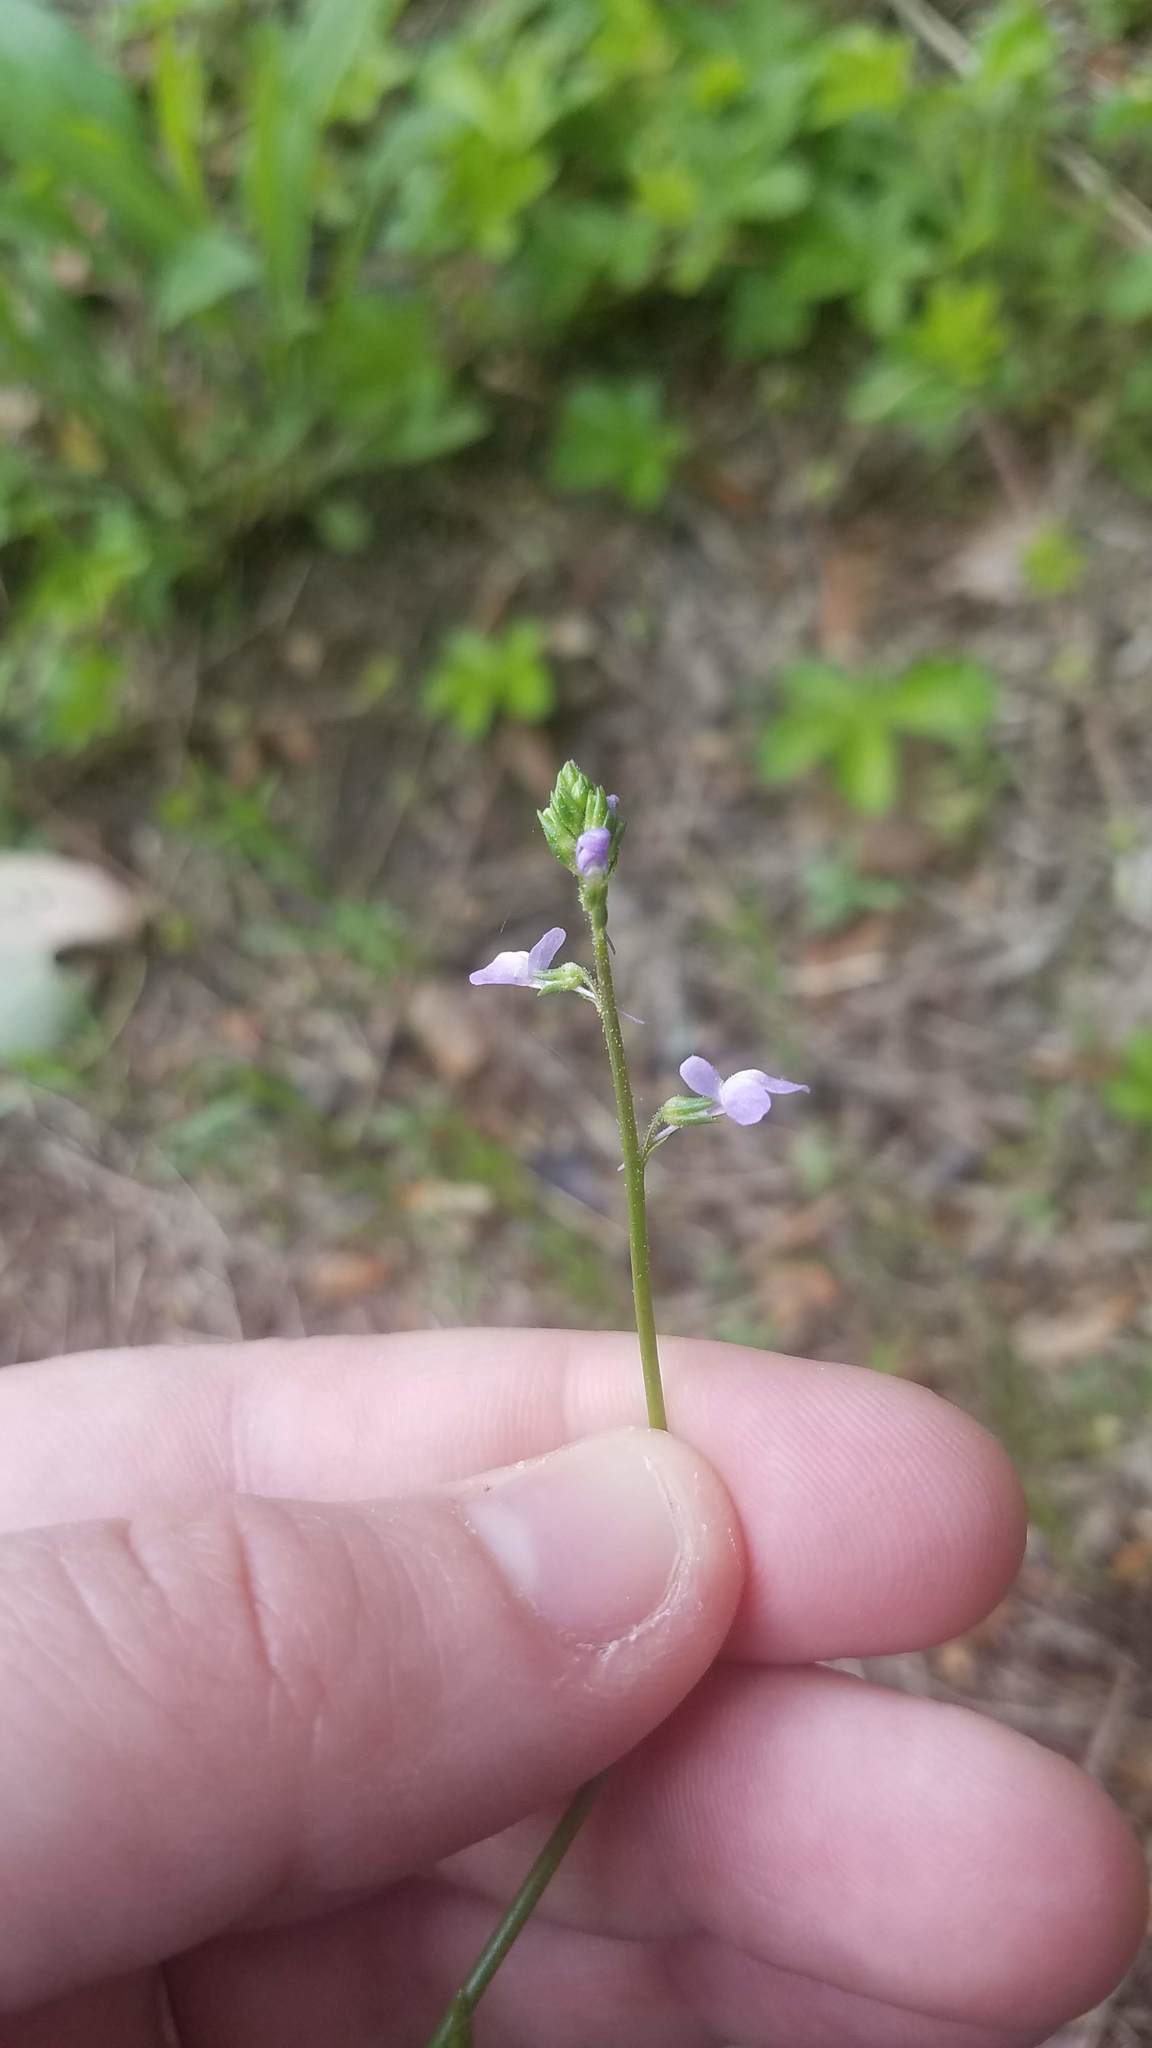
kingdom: Plantae
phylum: Tracheophyta
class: Magnoliopsida
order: Lamiales
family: Plantaginaceae
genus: Nuttallanthus
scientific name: Nuttallanthus canadensis
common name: Blue toadflax
